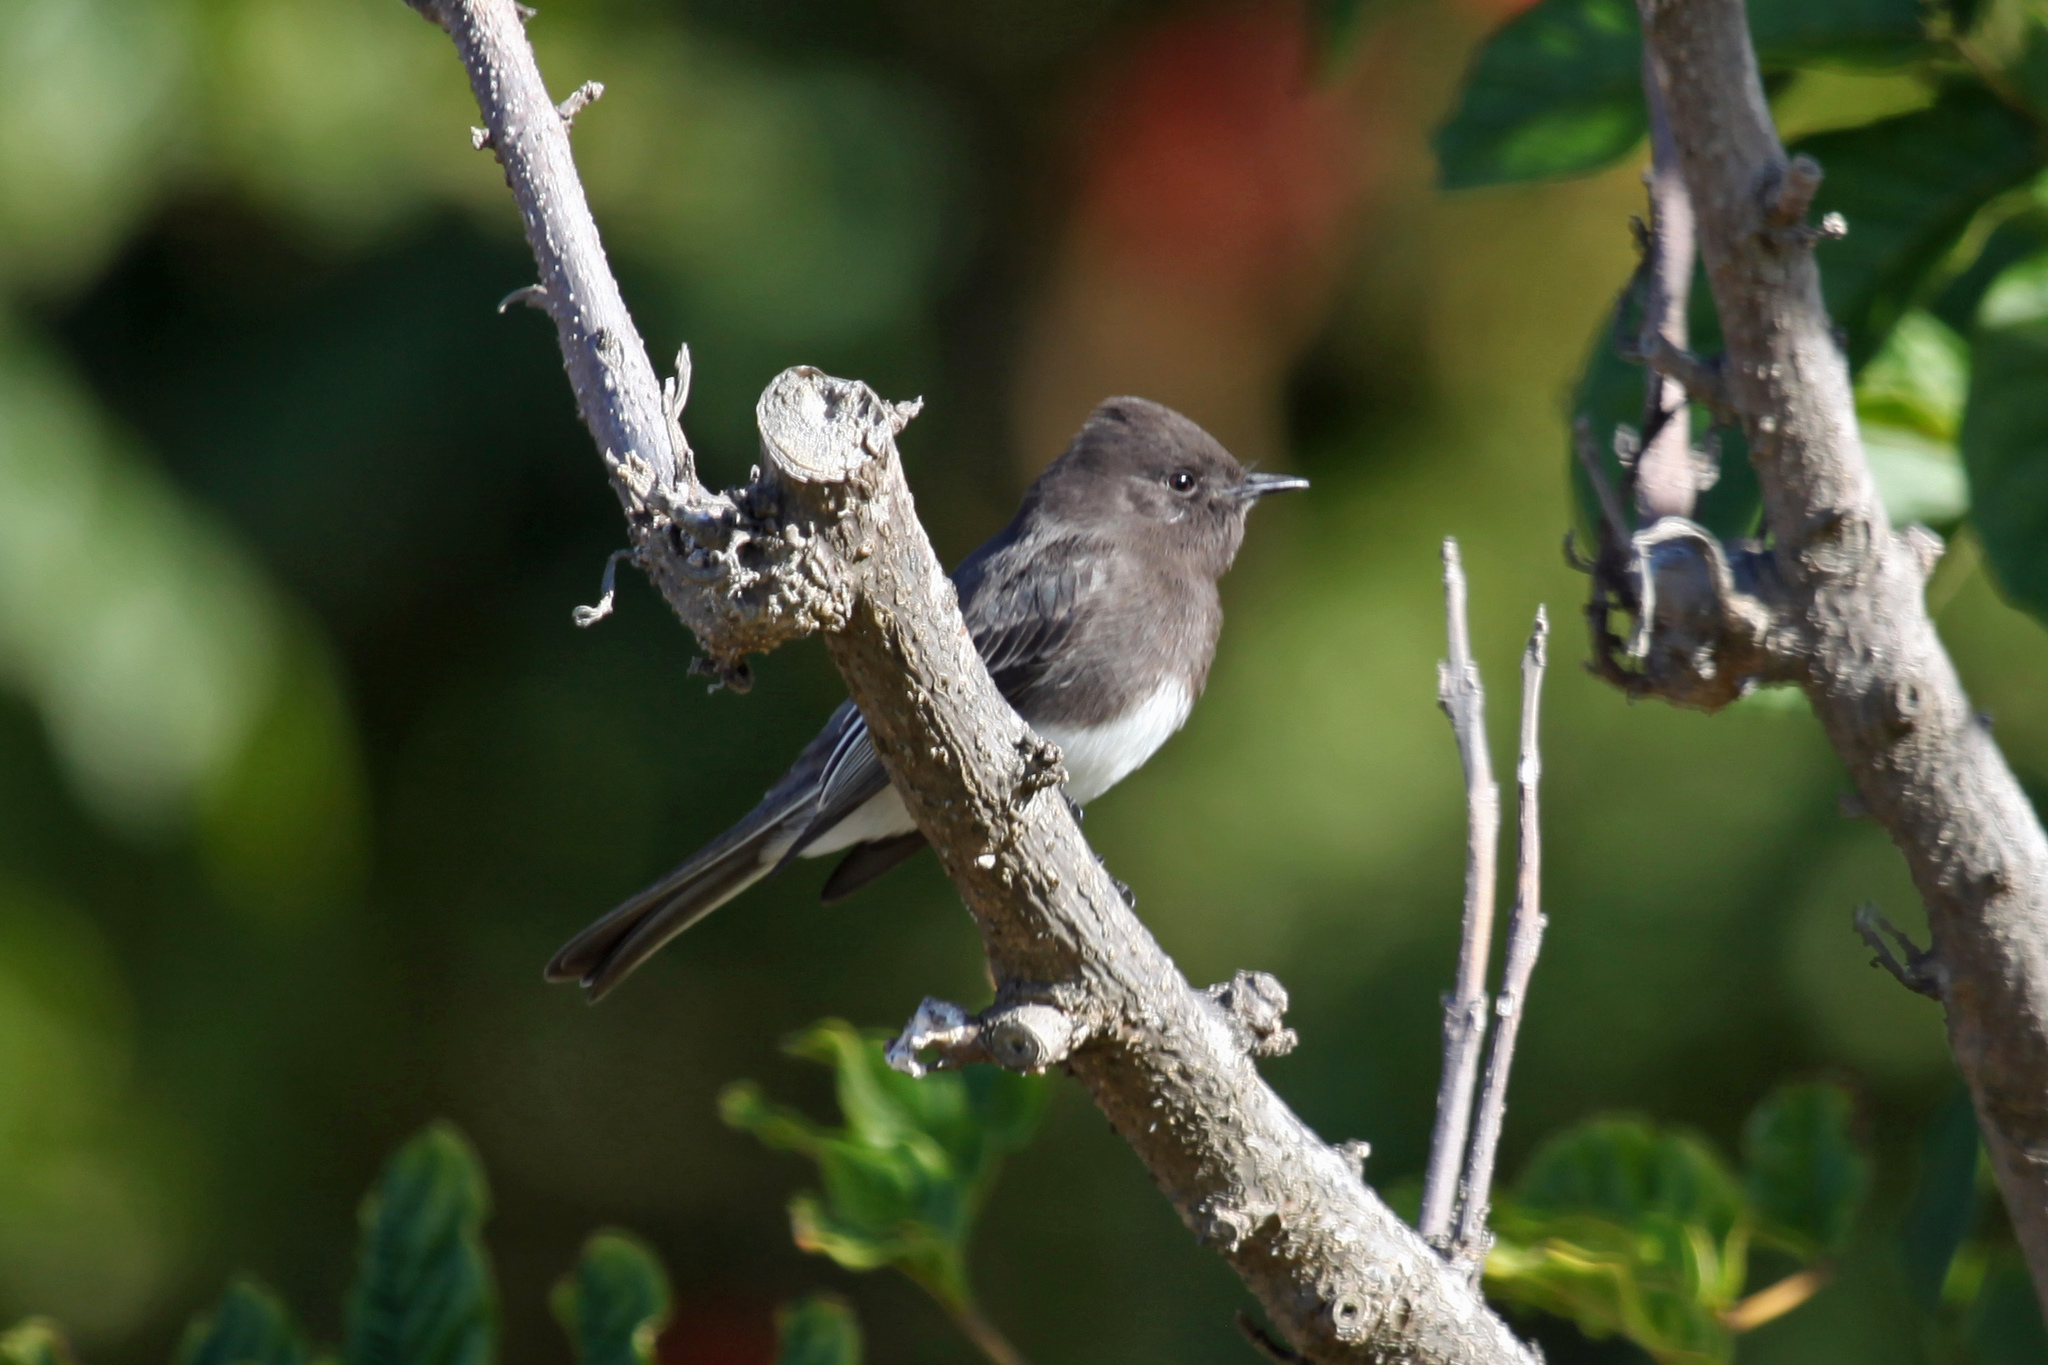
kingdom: Animalia
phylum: Chordata
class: Aves
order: Passeriformes
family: Tyrannidae
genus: Sayornis
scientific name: Sayornis nigricans
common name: Black phoebe
